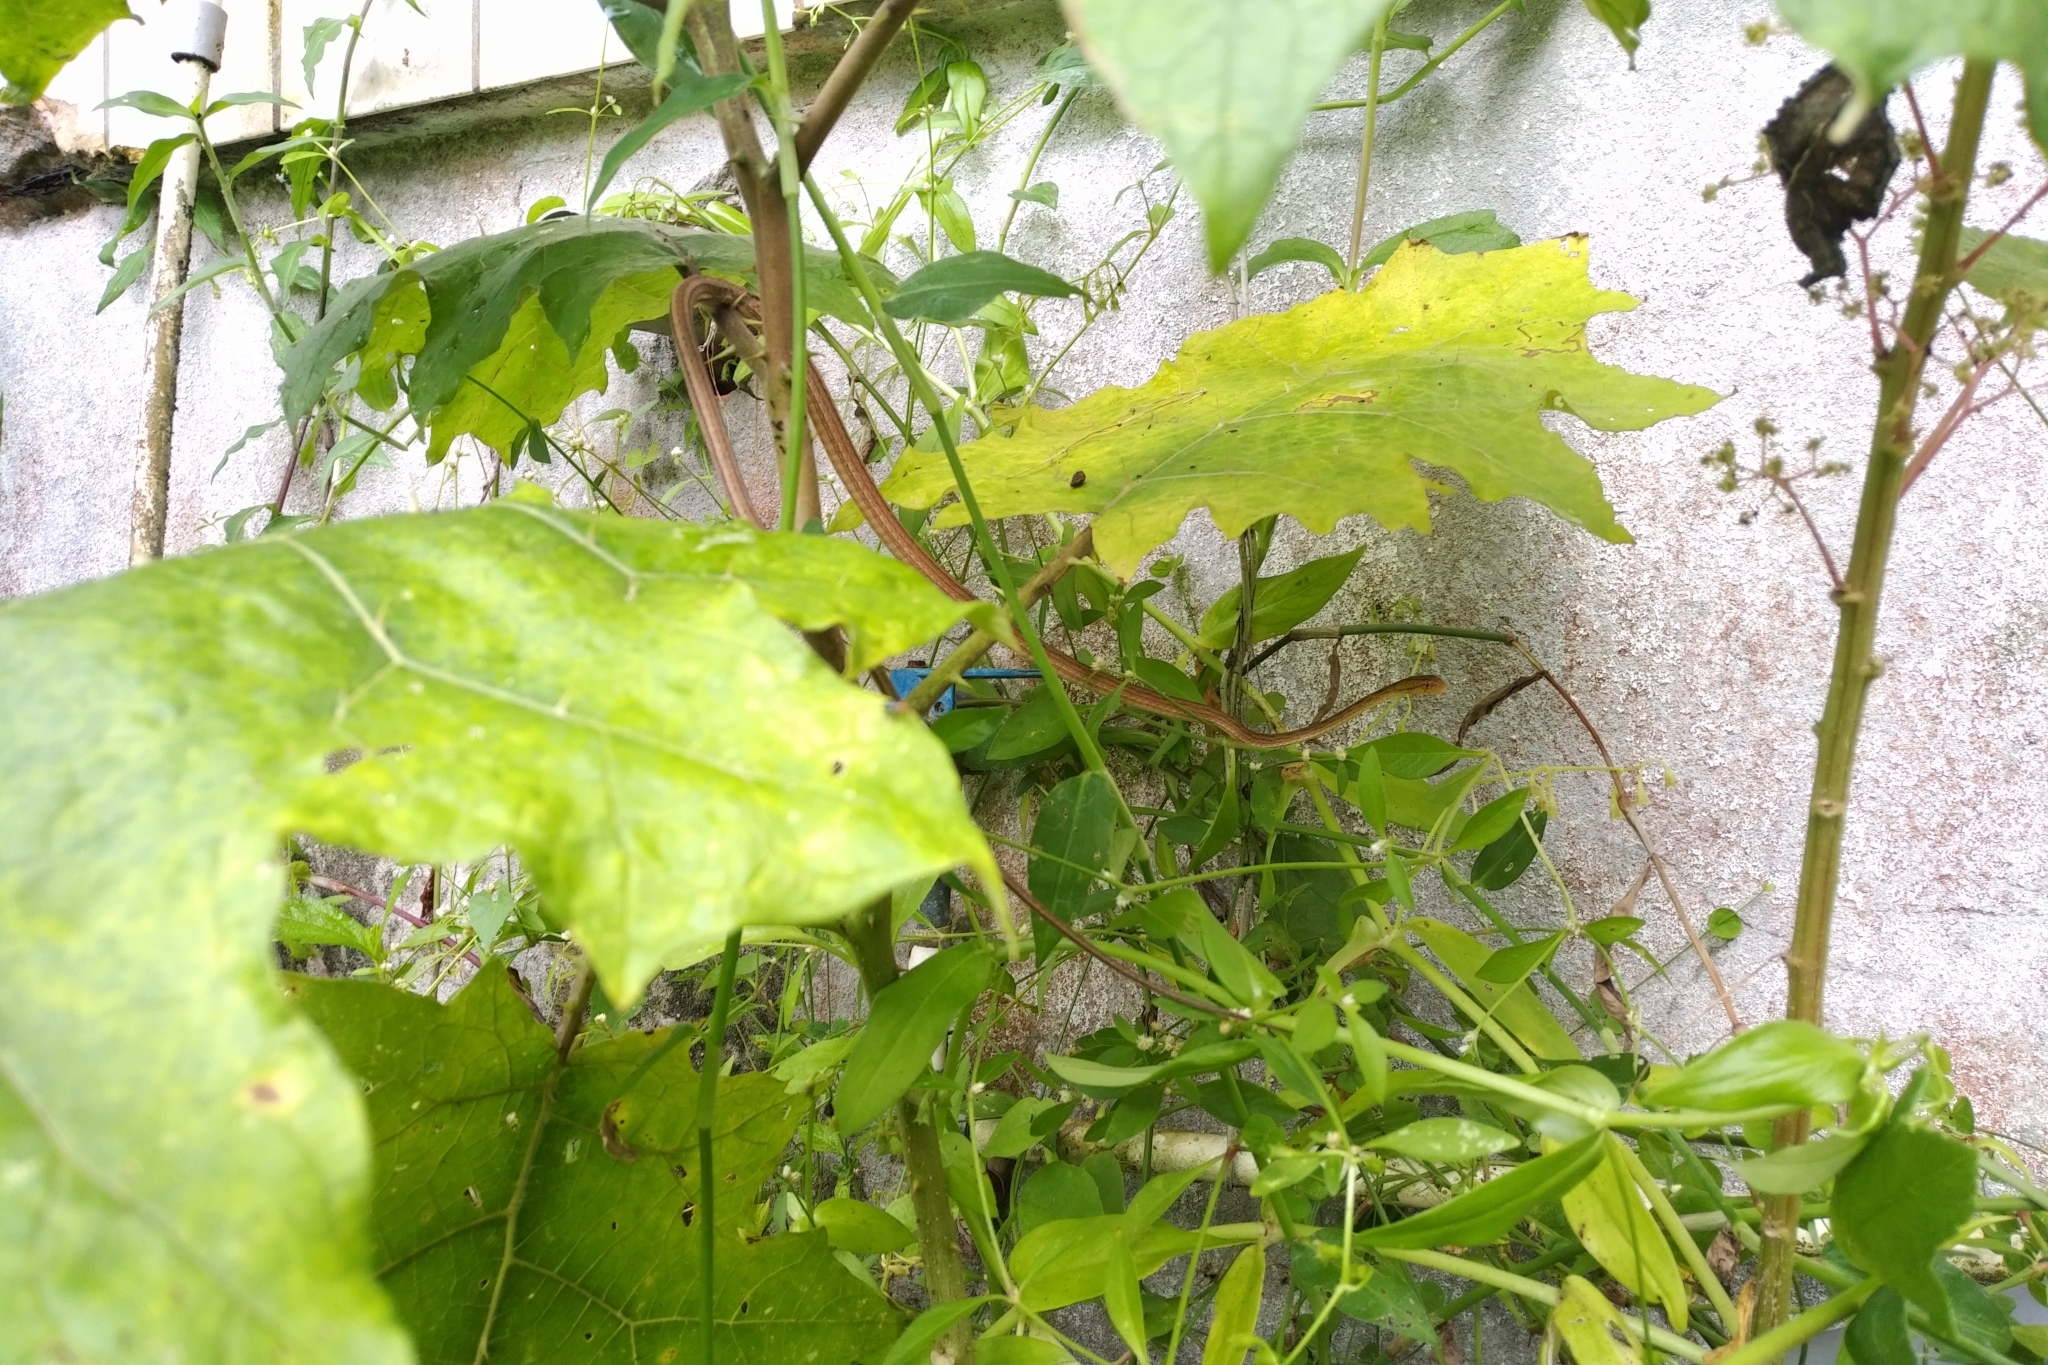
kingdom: Plantae
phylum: Tracheophyta
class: Magnoliopsida
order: Solanales
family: Solanaceae
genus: Solanum
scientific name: Solanum
